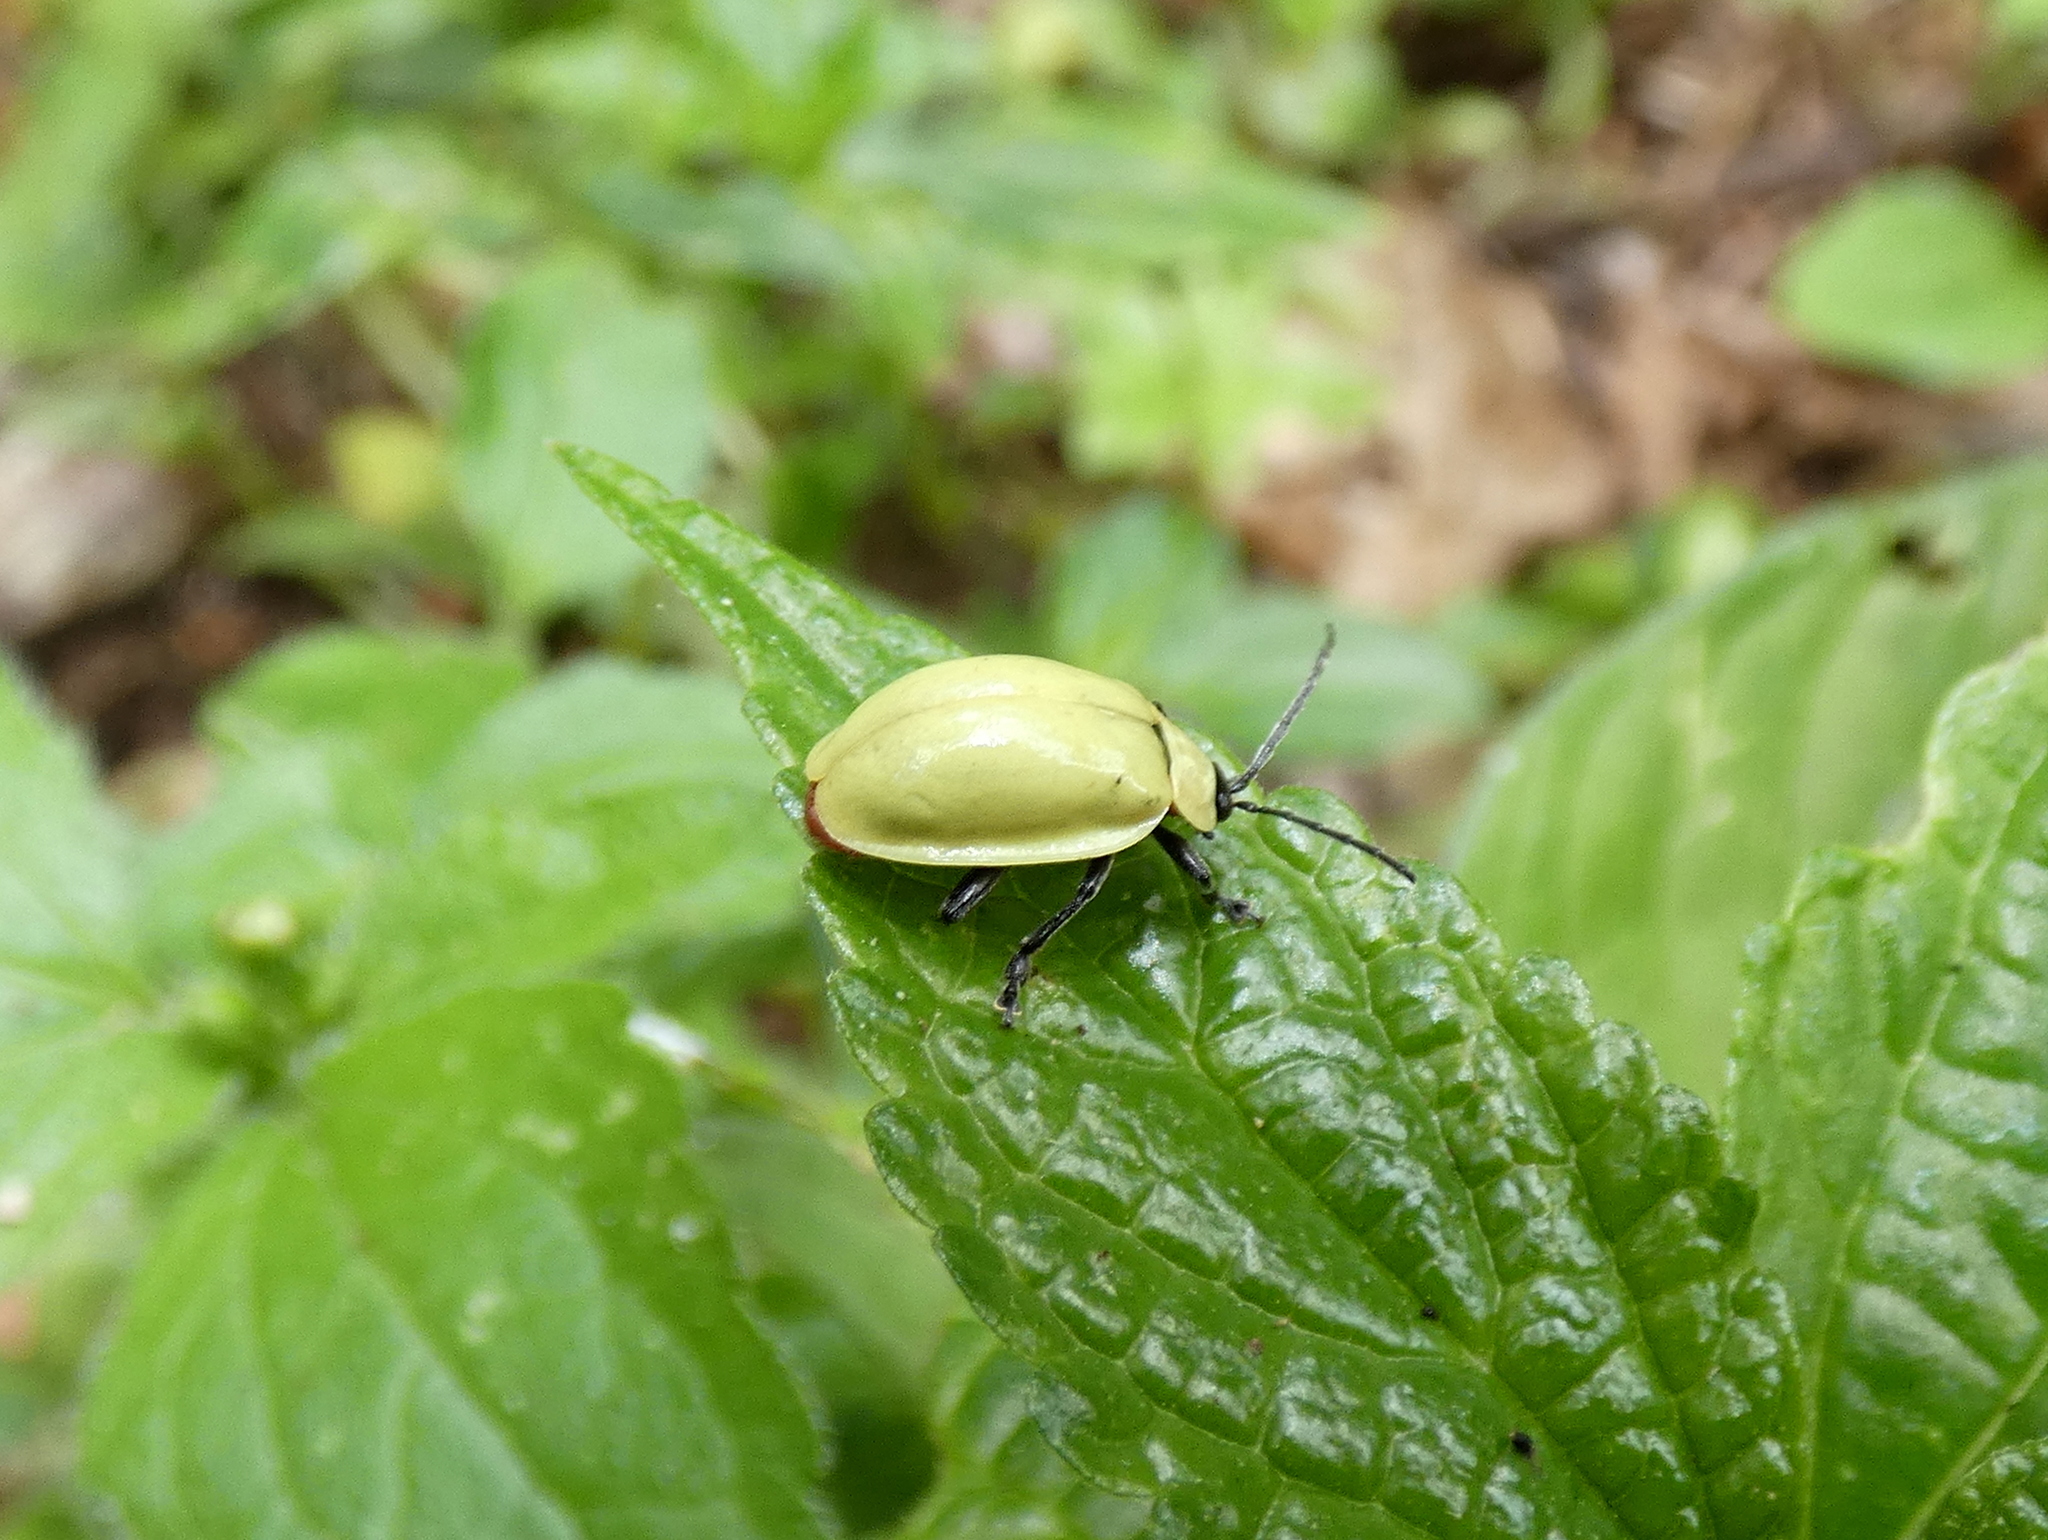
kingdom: Animalia
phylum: Arthropoda
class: Insecta
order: Coleoptera
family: Chrysomelidae
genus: Asphaera
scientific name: Asphaera
